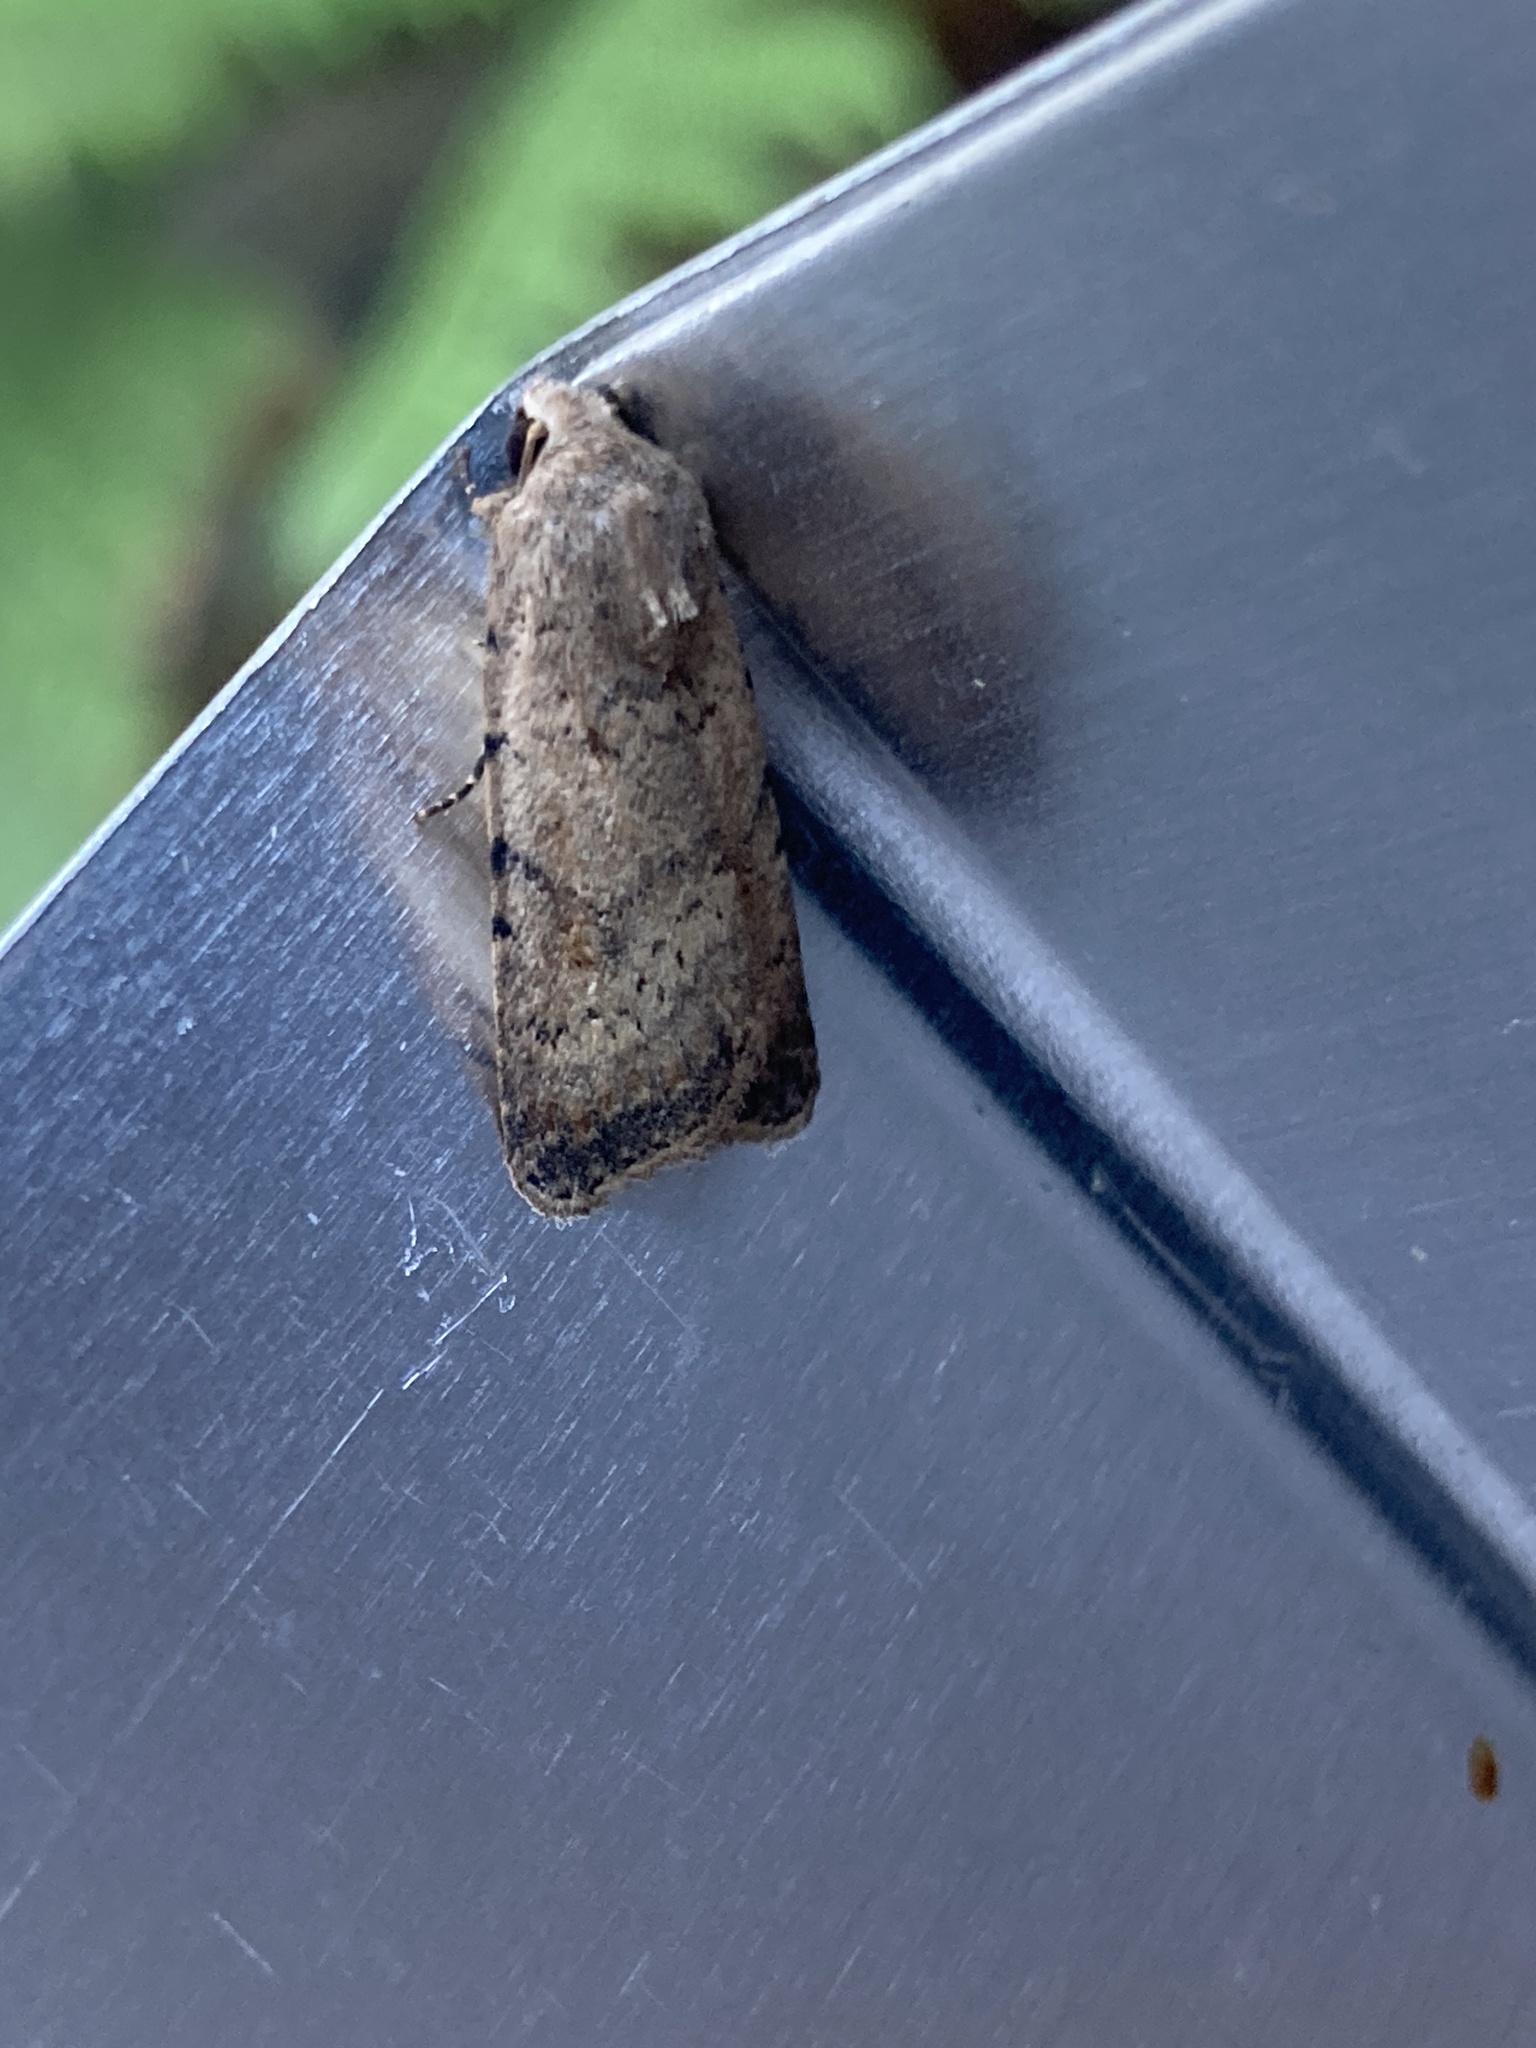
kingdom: Animalia
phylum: Arthropoda
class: Insecta
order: Lepidoptera
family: Noctuidae
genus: Caradrina
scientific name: Caradrina clavipalpis
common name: Pale mottled willow
